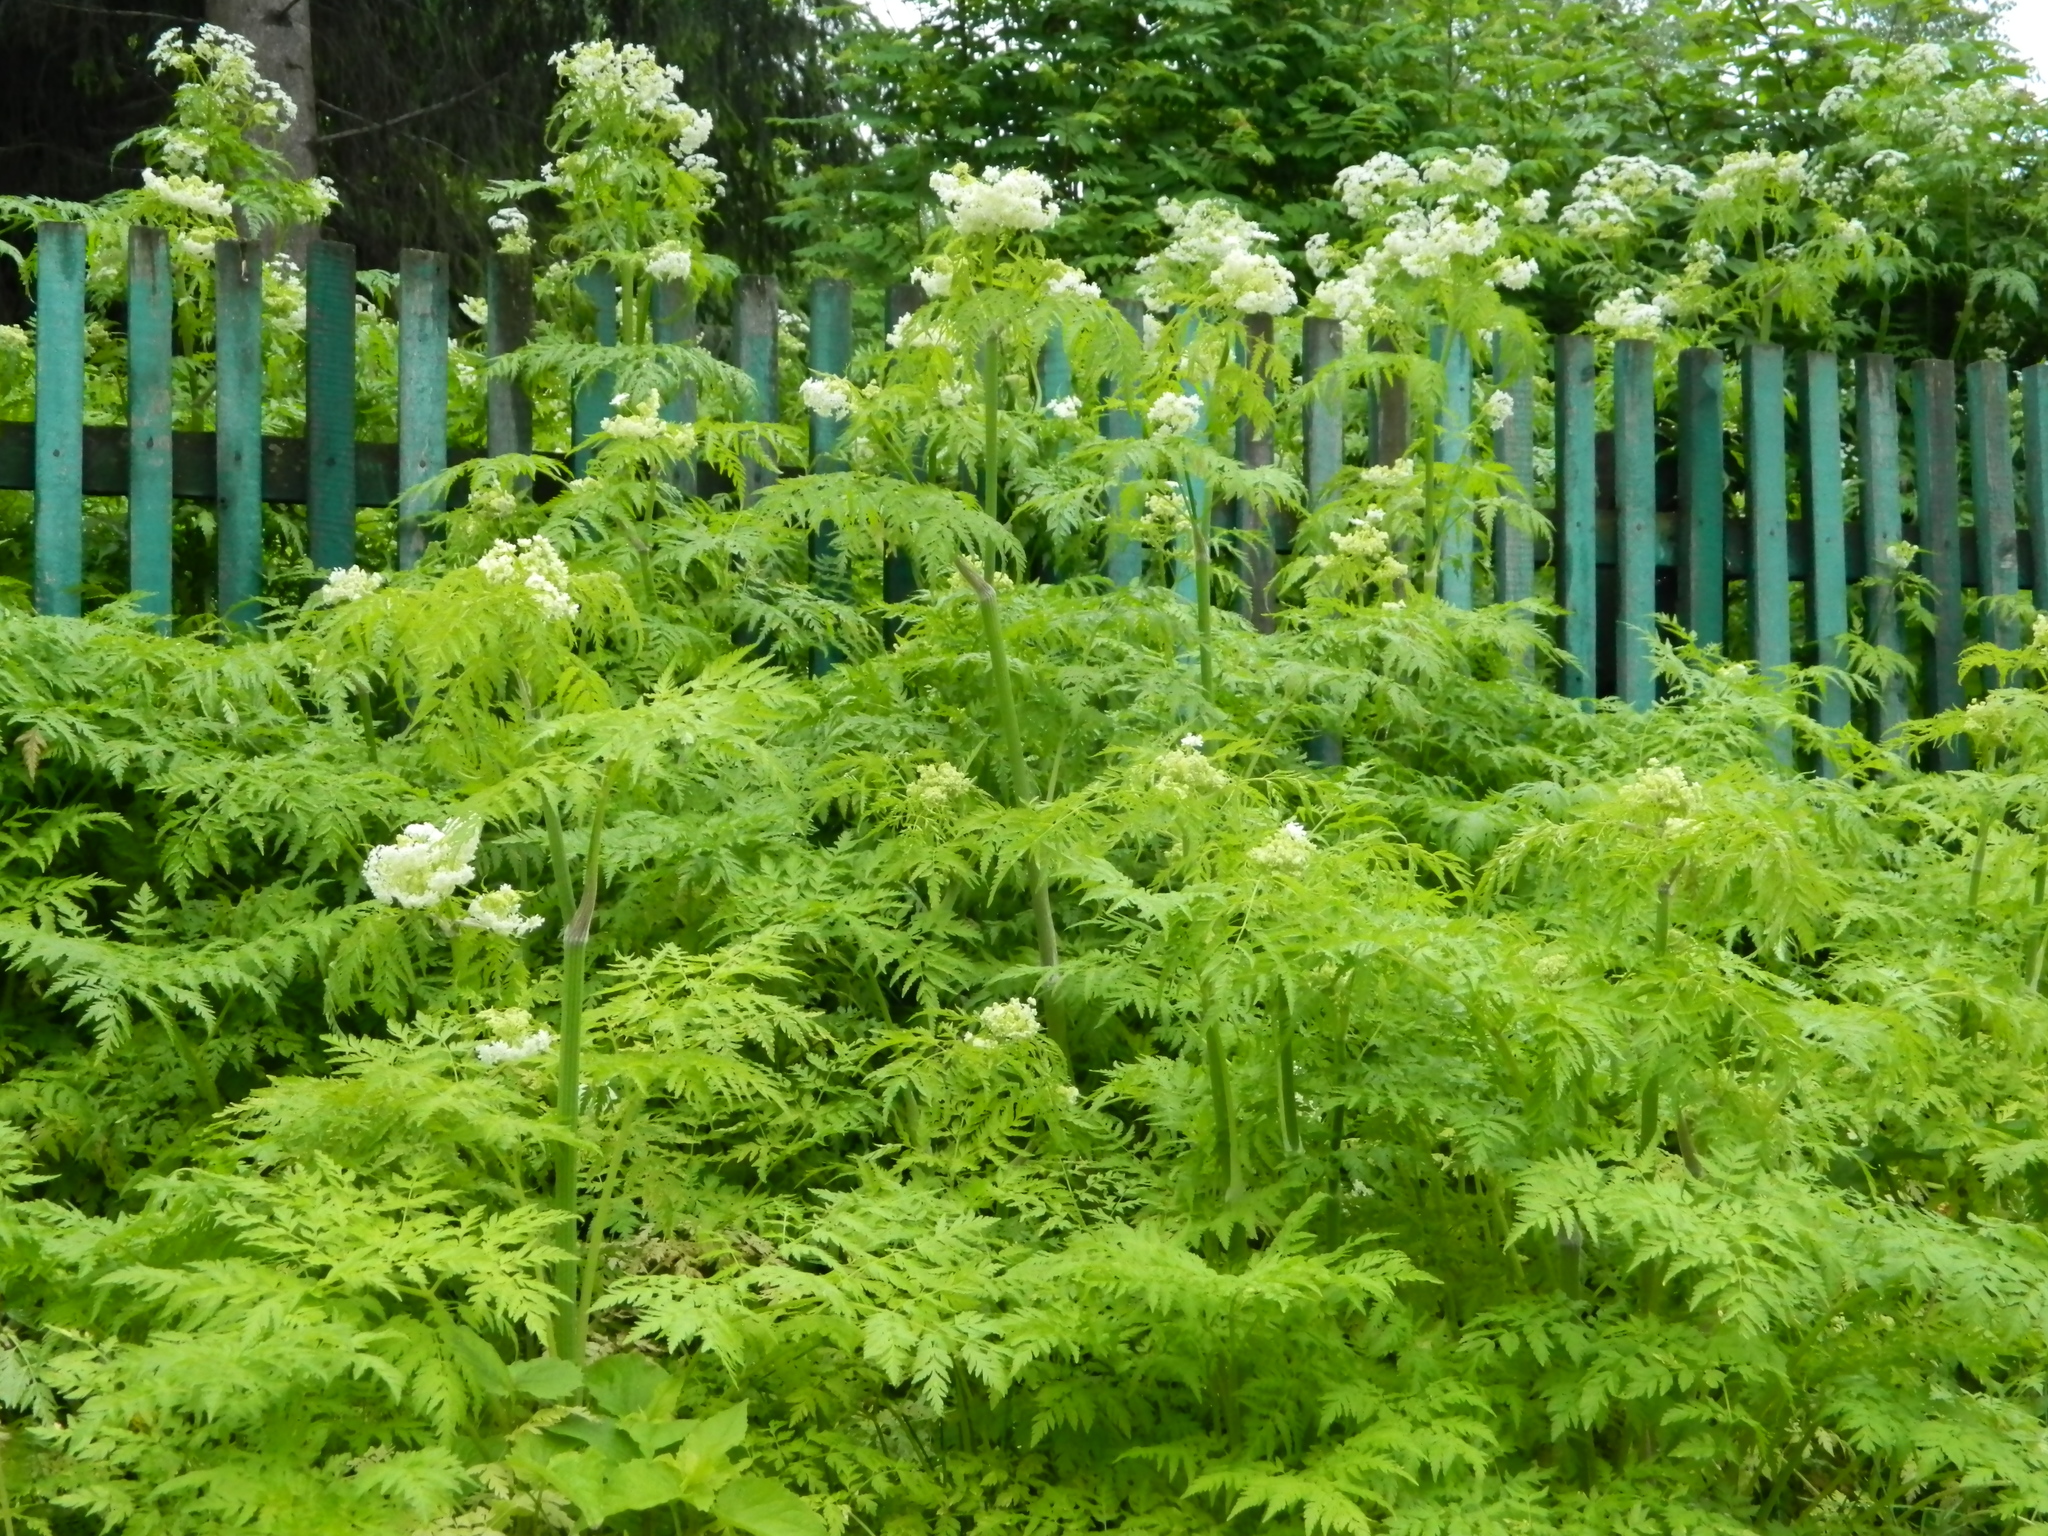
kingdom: Plantae
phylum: Tracheophyta
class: Magnoliopsida
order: Apiales
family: Apiaceae
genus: Anthriscus
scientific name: Anthriscus sylvestris
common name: Cow parsley
